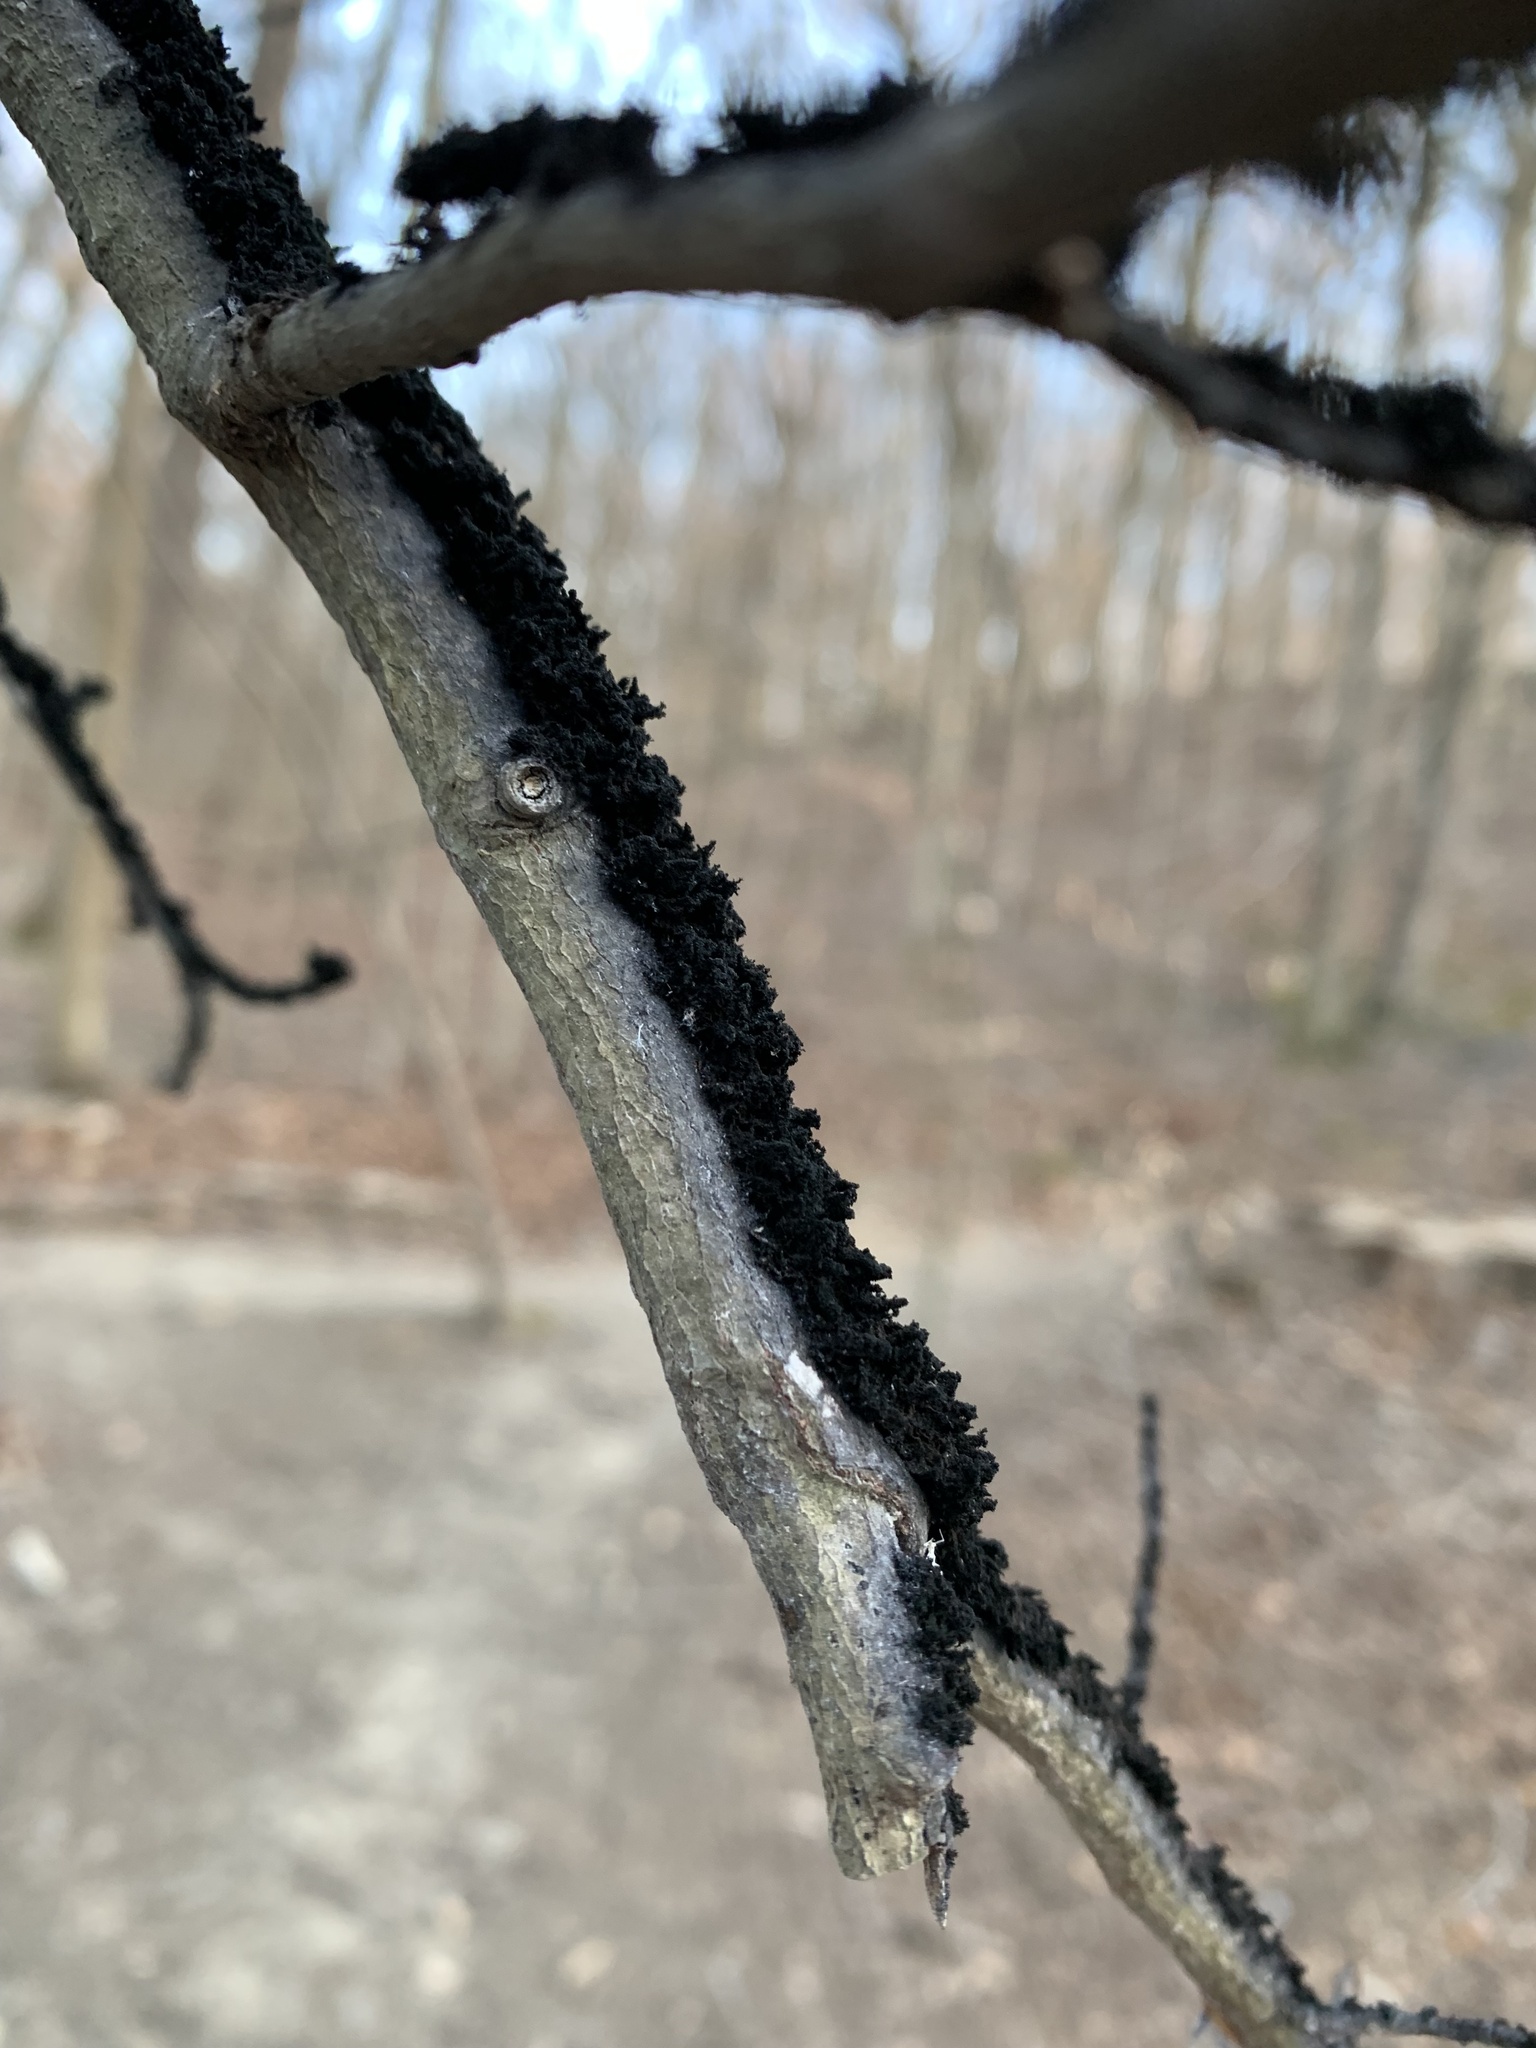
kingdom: Fungi
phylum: Ascomycota
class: Dothideomycetes
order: Capnodiales
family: Capnodiaceae
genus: Scorias
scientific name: Scorias spongiosa
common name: Black sooty mold
